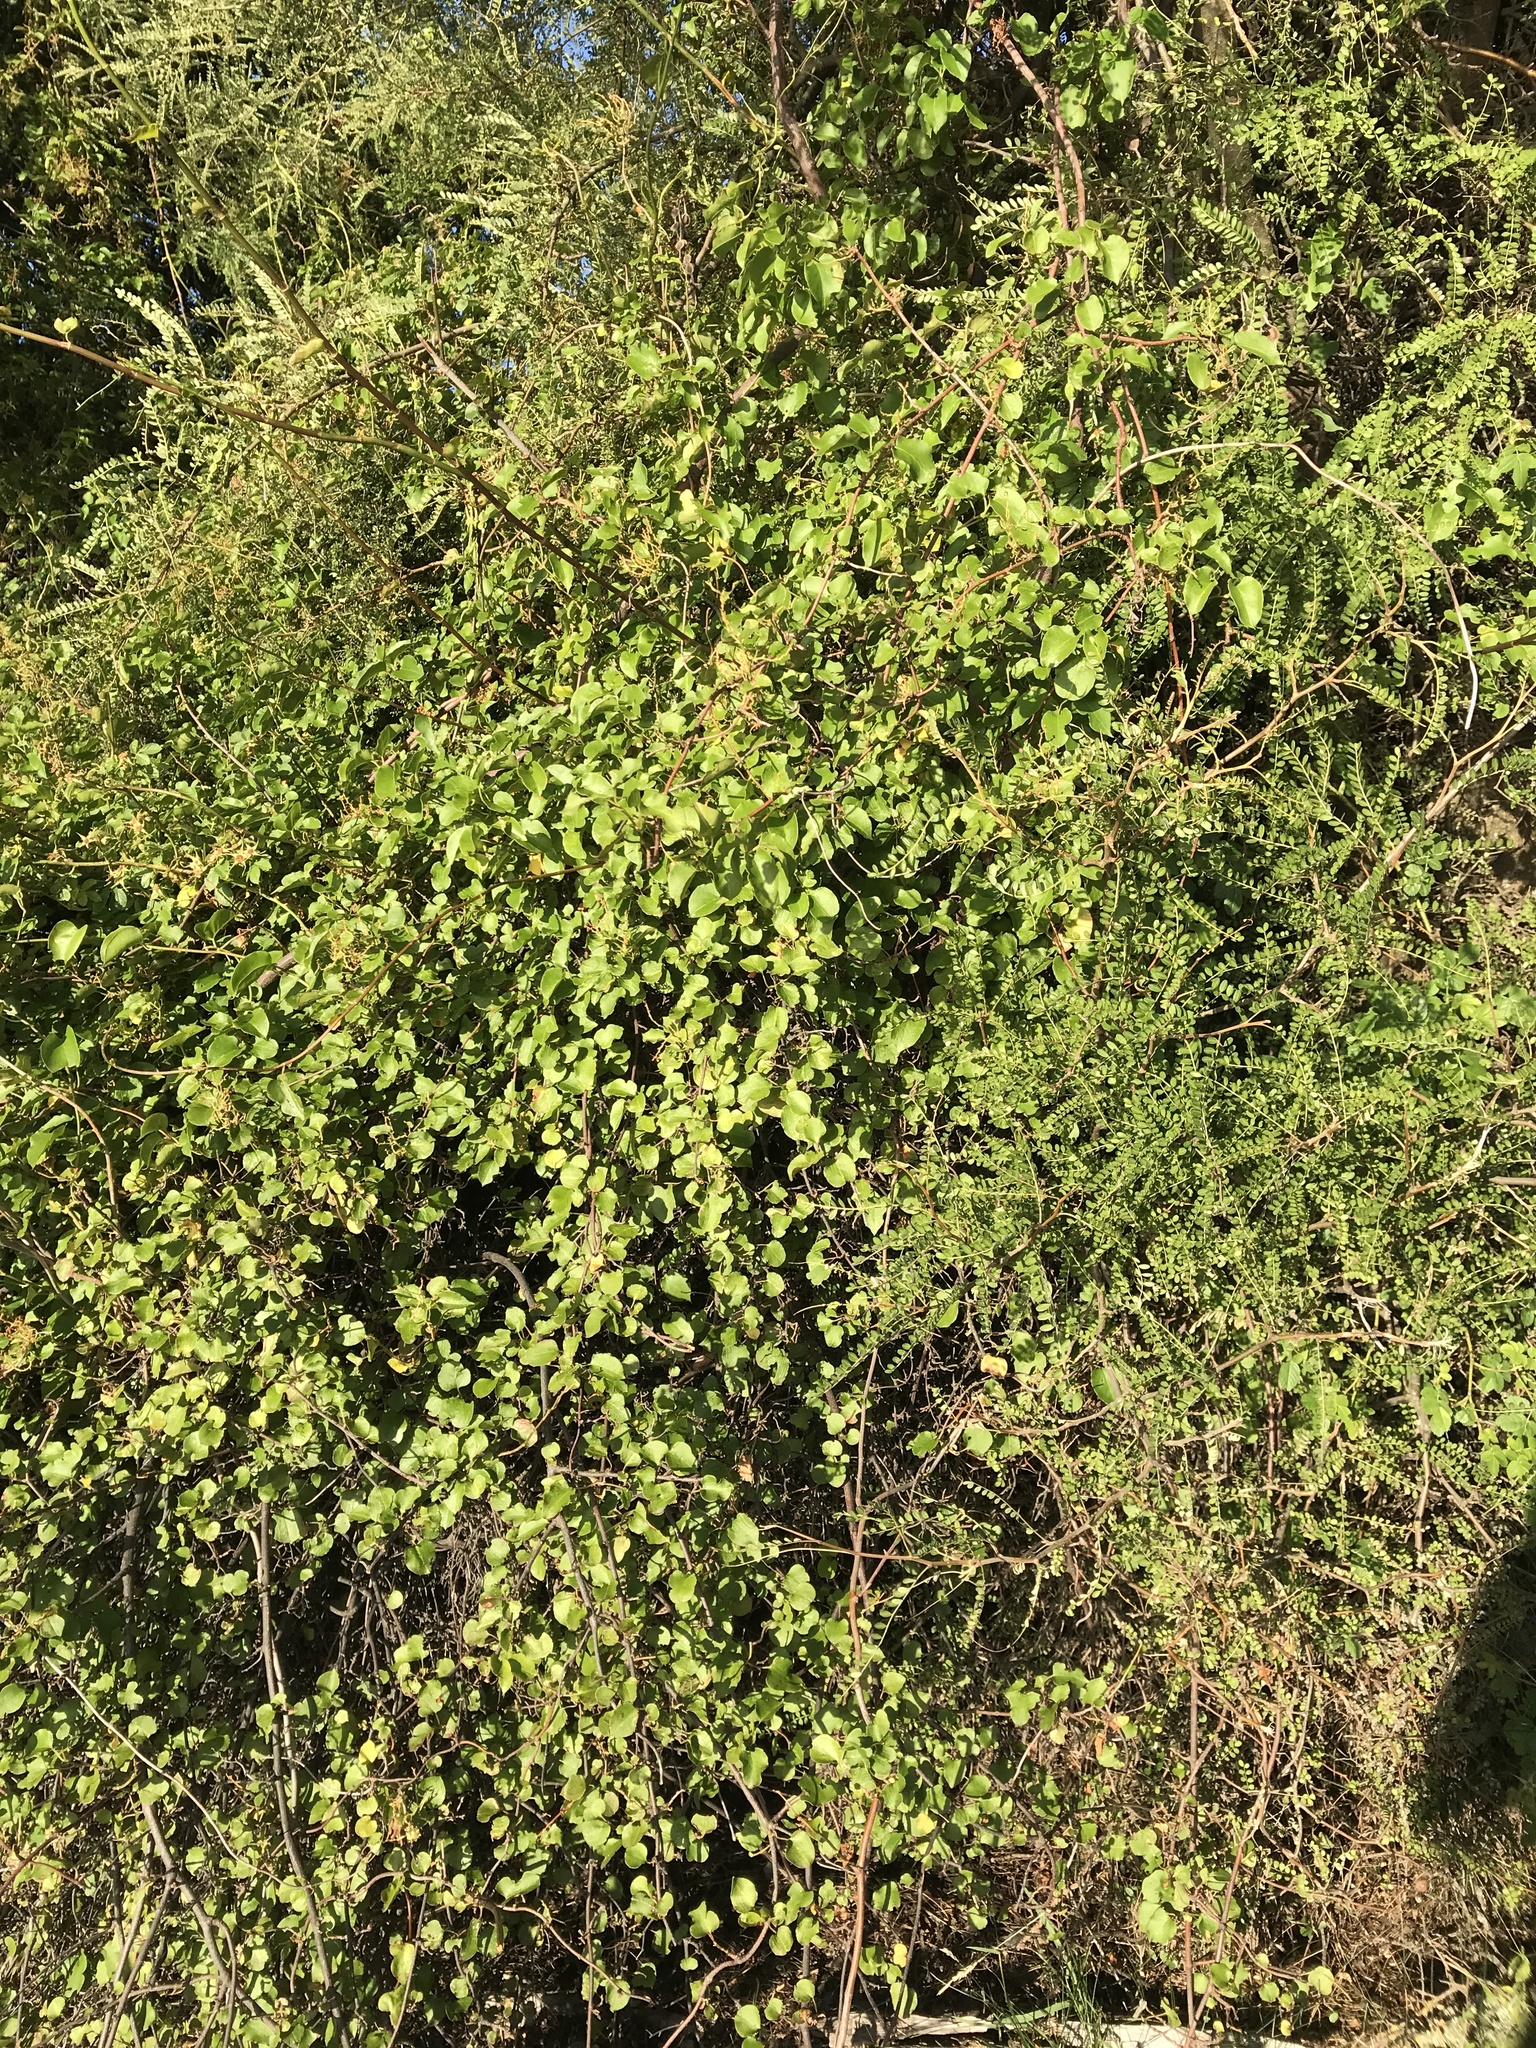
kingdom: Plantae
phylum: Tracheophyta
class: Magnoliopsida
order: Caryophyllales
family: Polygonaceae
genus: Muehlenbeckia
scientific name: Muehlenbeckia australis
